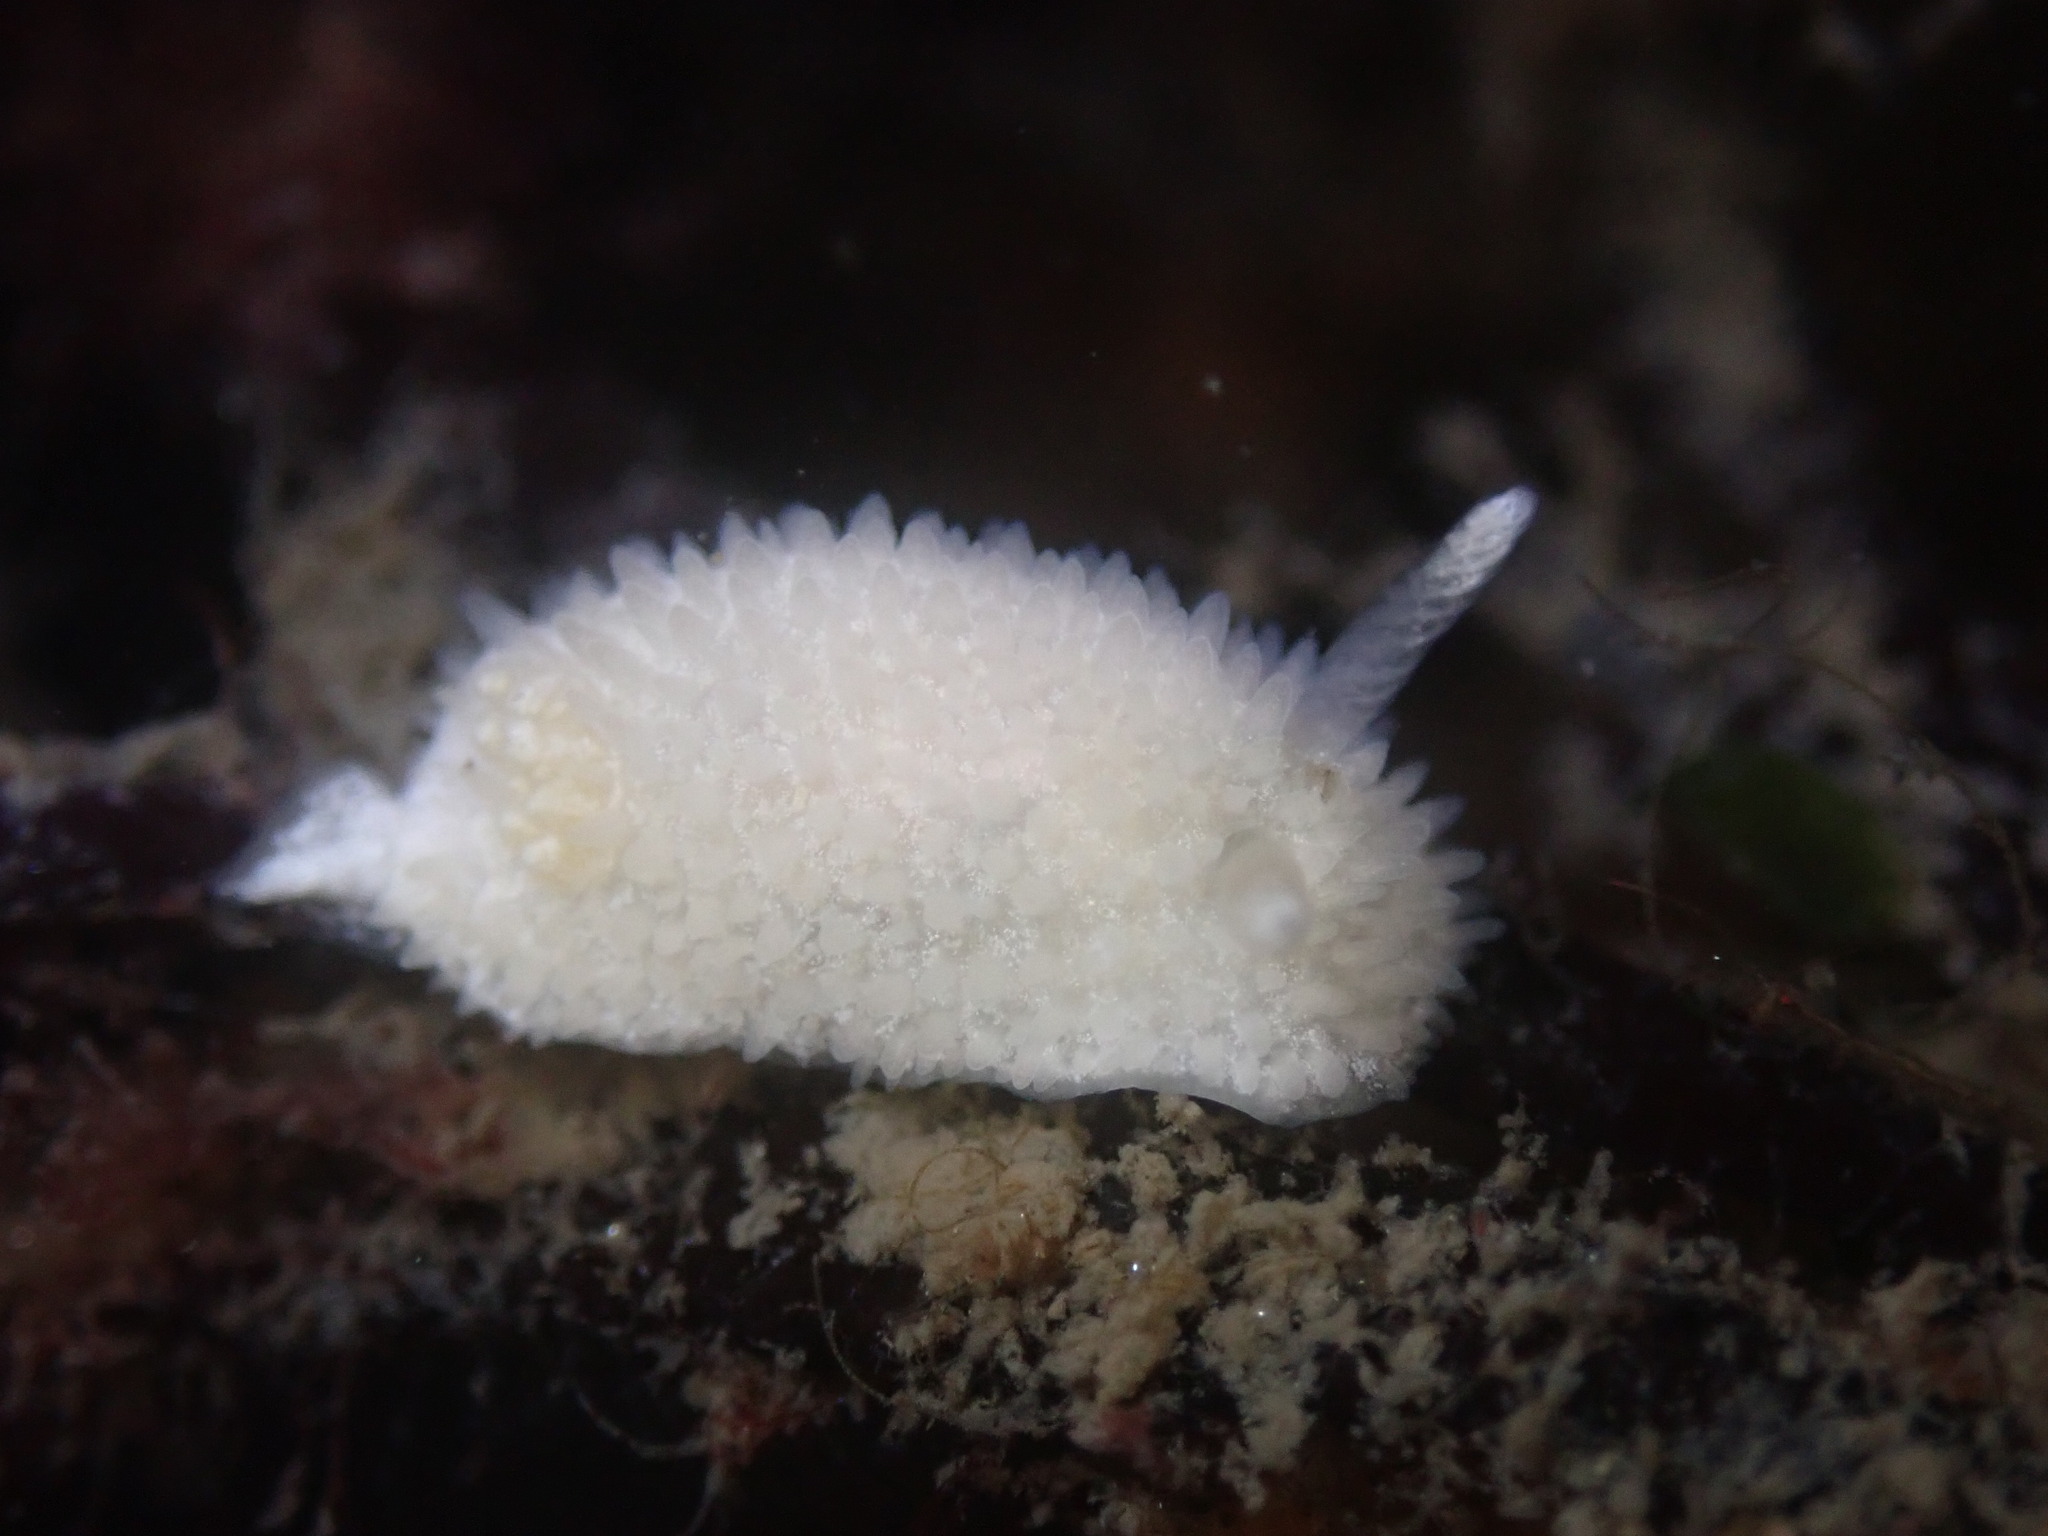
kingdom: Animalia
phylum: Mollusca
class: Gastropoda
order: Nudibranchia
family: Calycidorididae
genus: Diaphorodoris
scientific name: Diaphorodoris lirulatocauda
